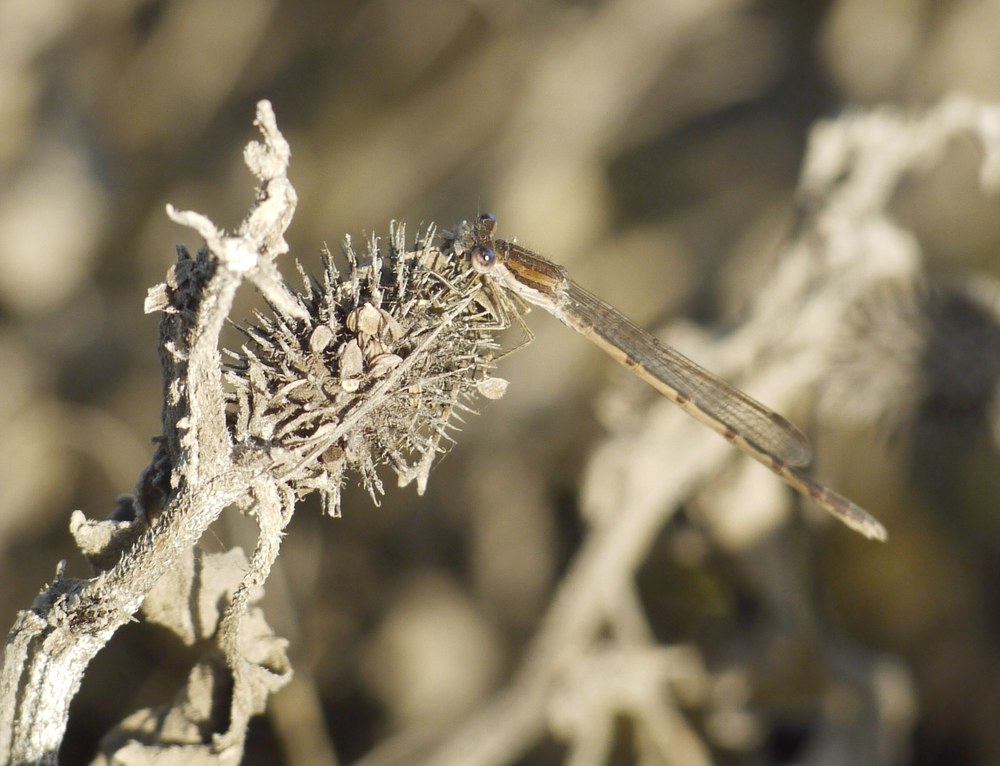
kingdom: Animalia
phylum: Arthropoda
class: Insecta
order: Odonata
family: Lestidae
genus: Sympecma
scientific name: Sympecma fusca
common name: Common winter damsel
